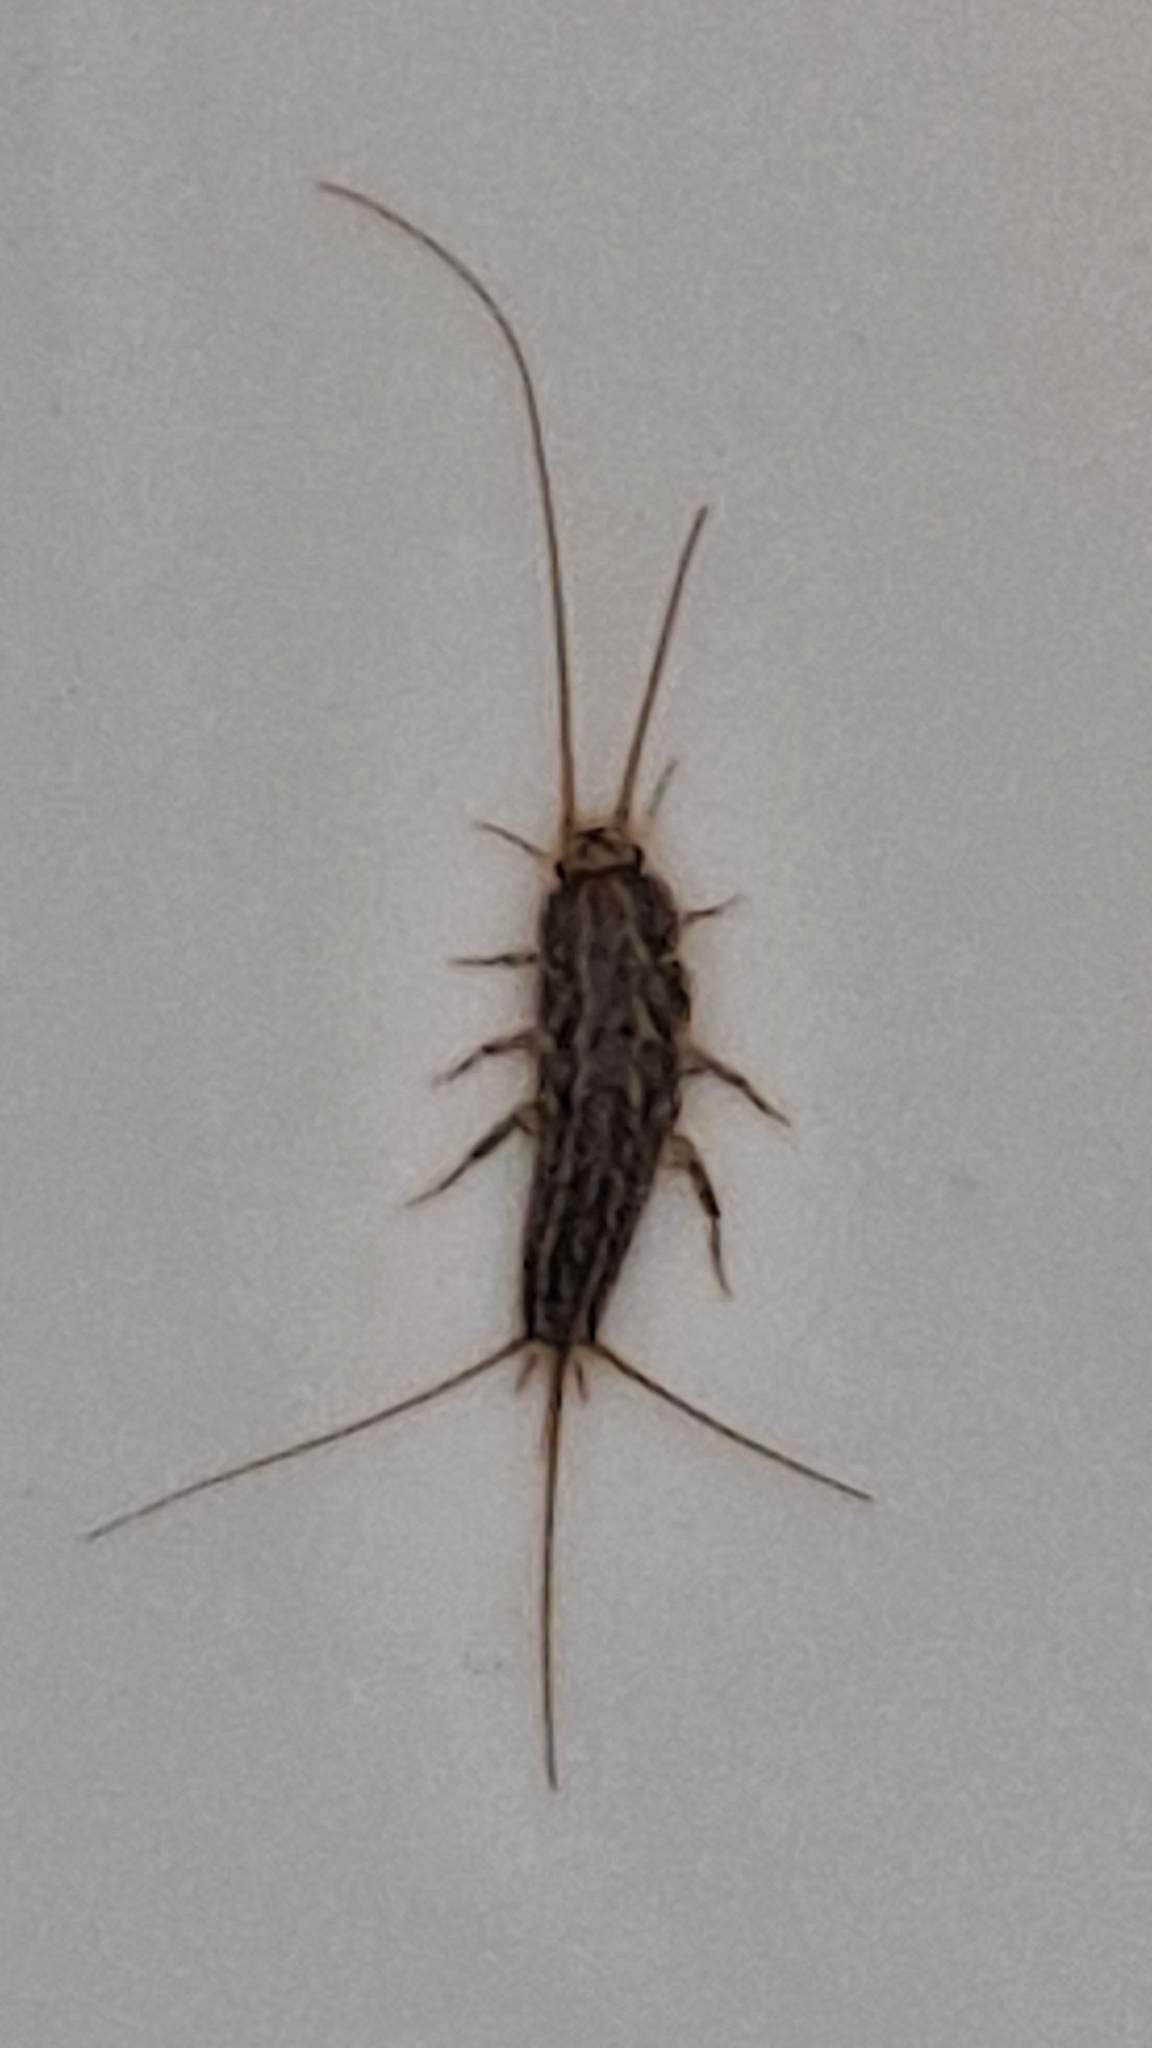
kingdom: Animalia
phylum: Arthropoda
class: Insecta
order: Zygentoma
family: Lepismatidae
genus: Ctenolepisma
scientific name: Ctenolepisma lineata
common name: Four-lined silverfish
